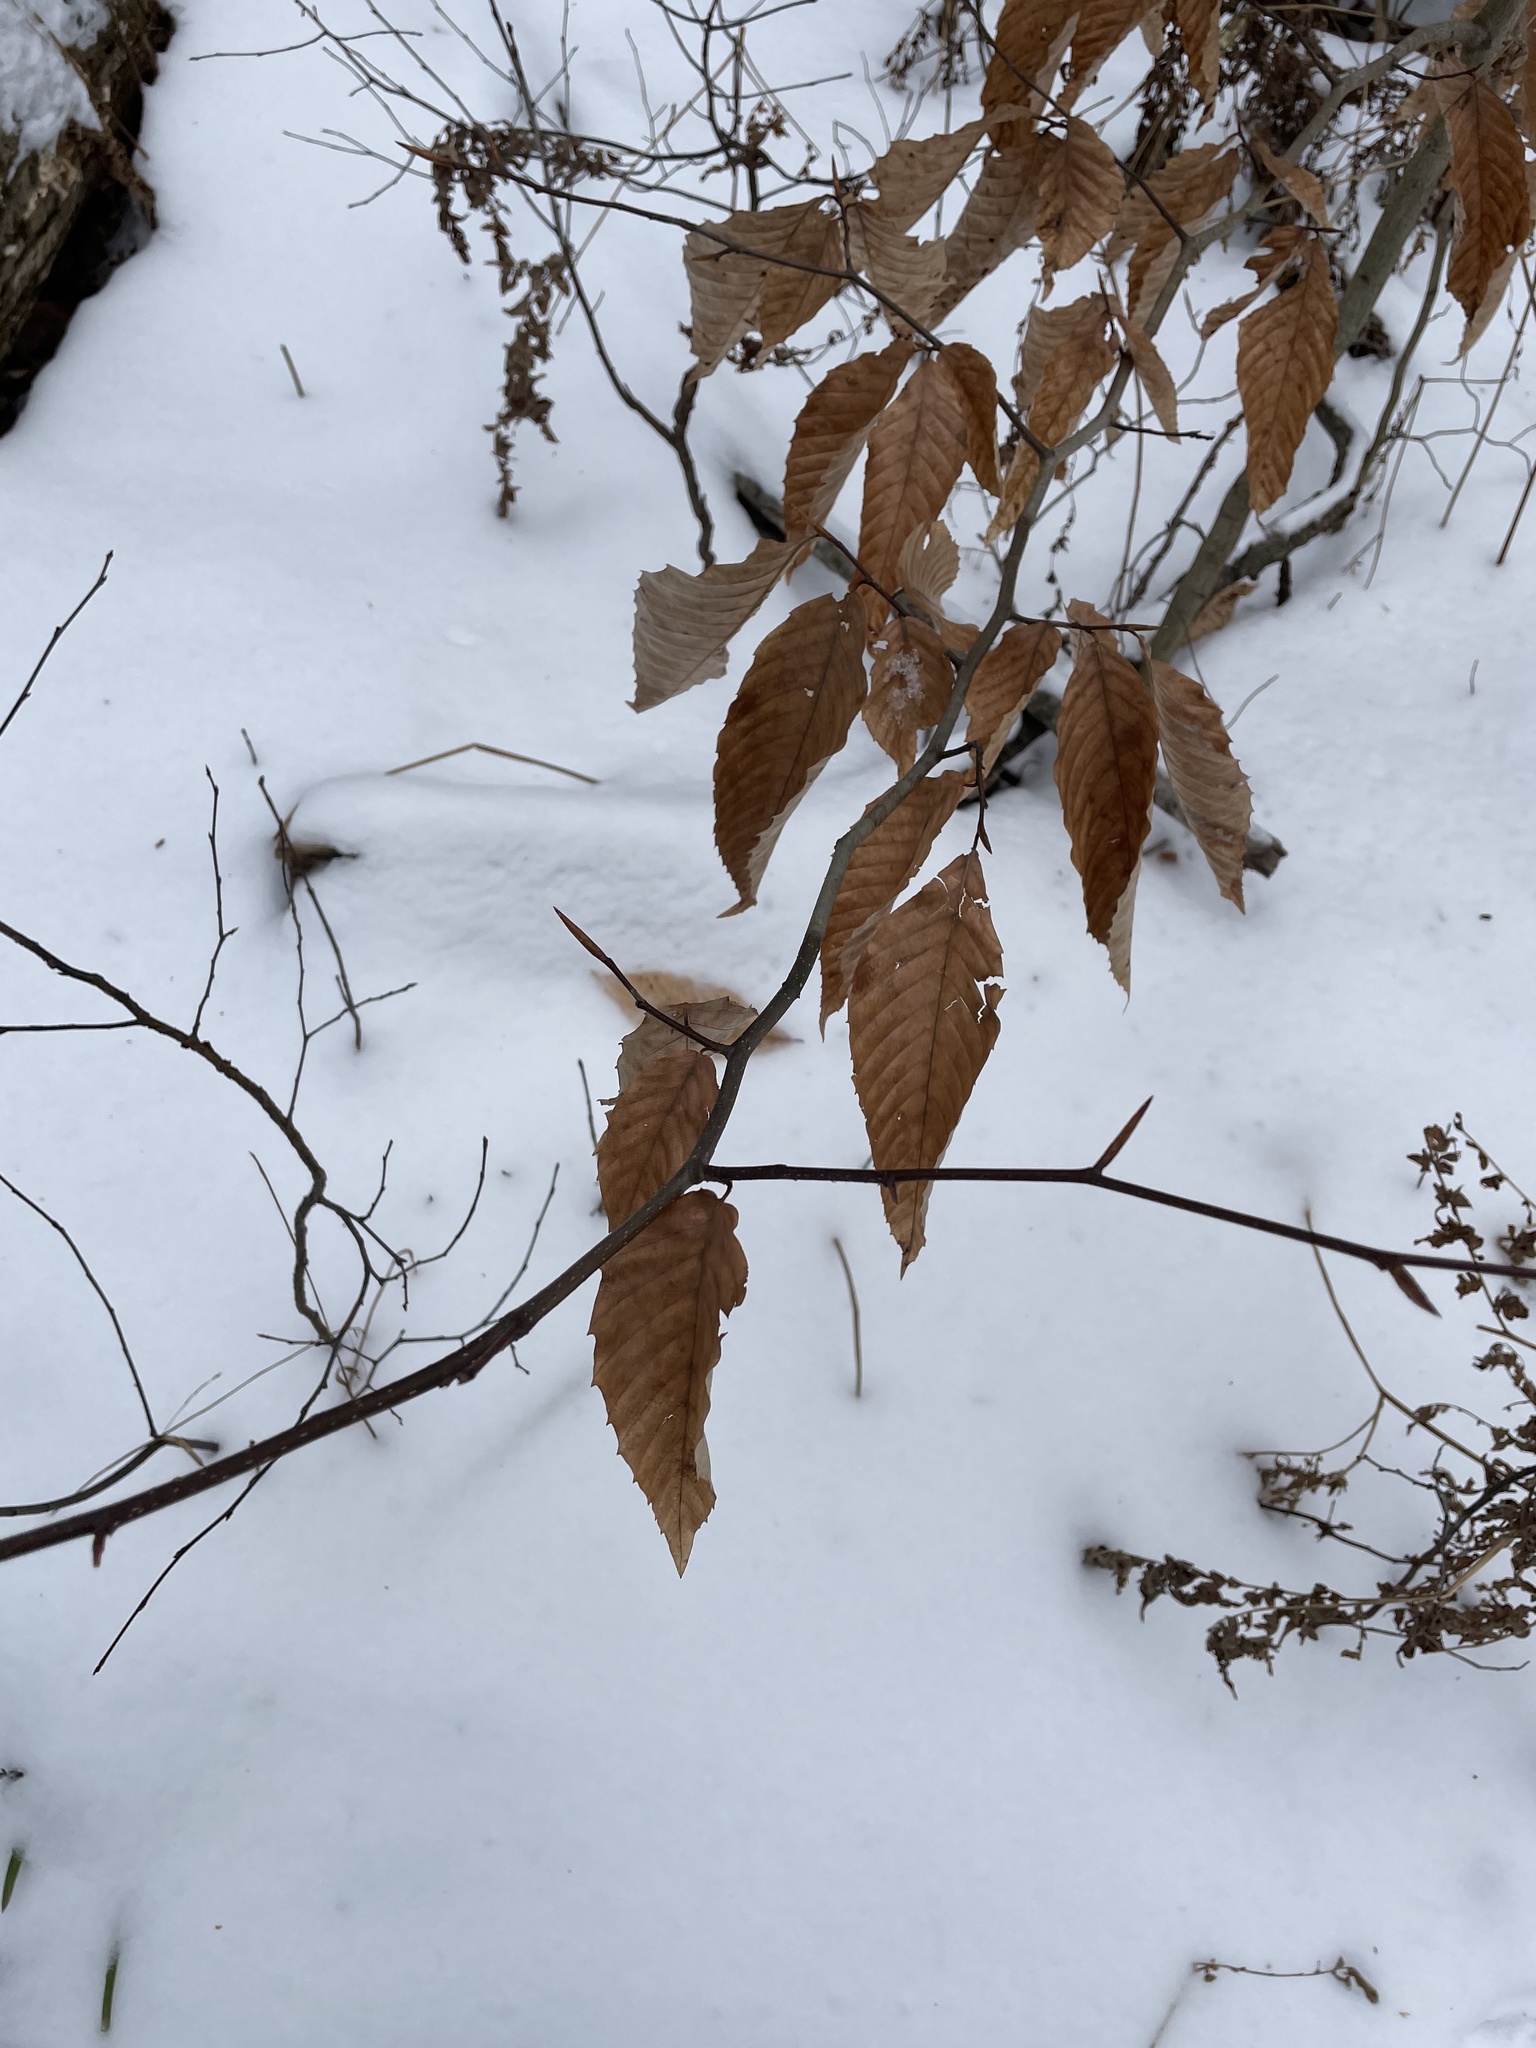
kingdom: Plantae
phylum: Tracheophyta
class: Magnoliopsida
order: Fagales
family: Fagaceae
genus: Fagus
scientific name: Fagus grandifolia
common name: American beech
